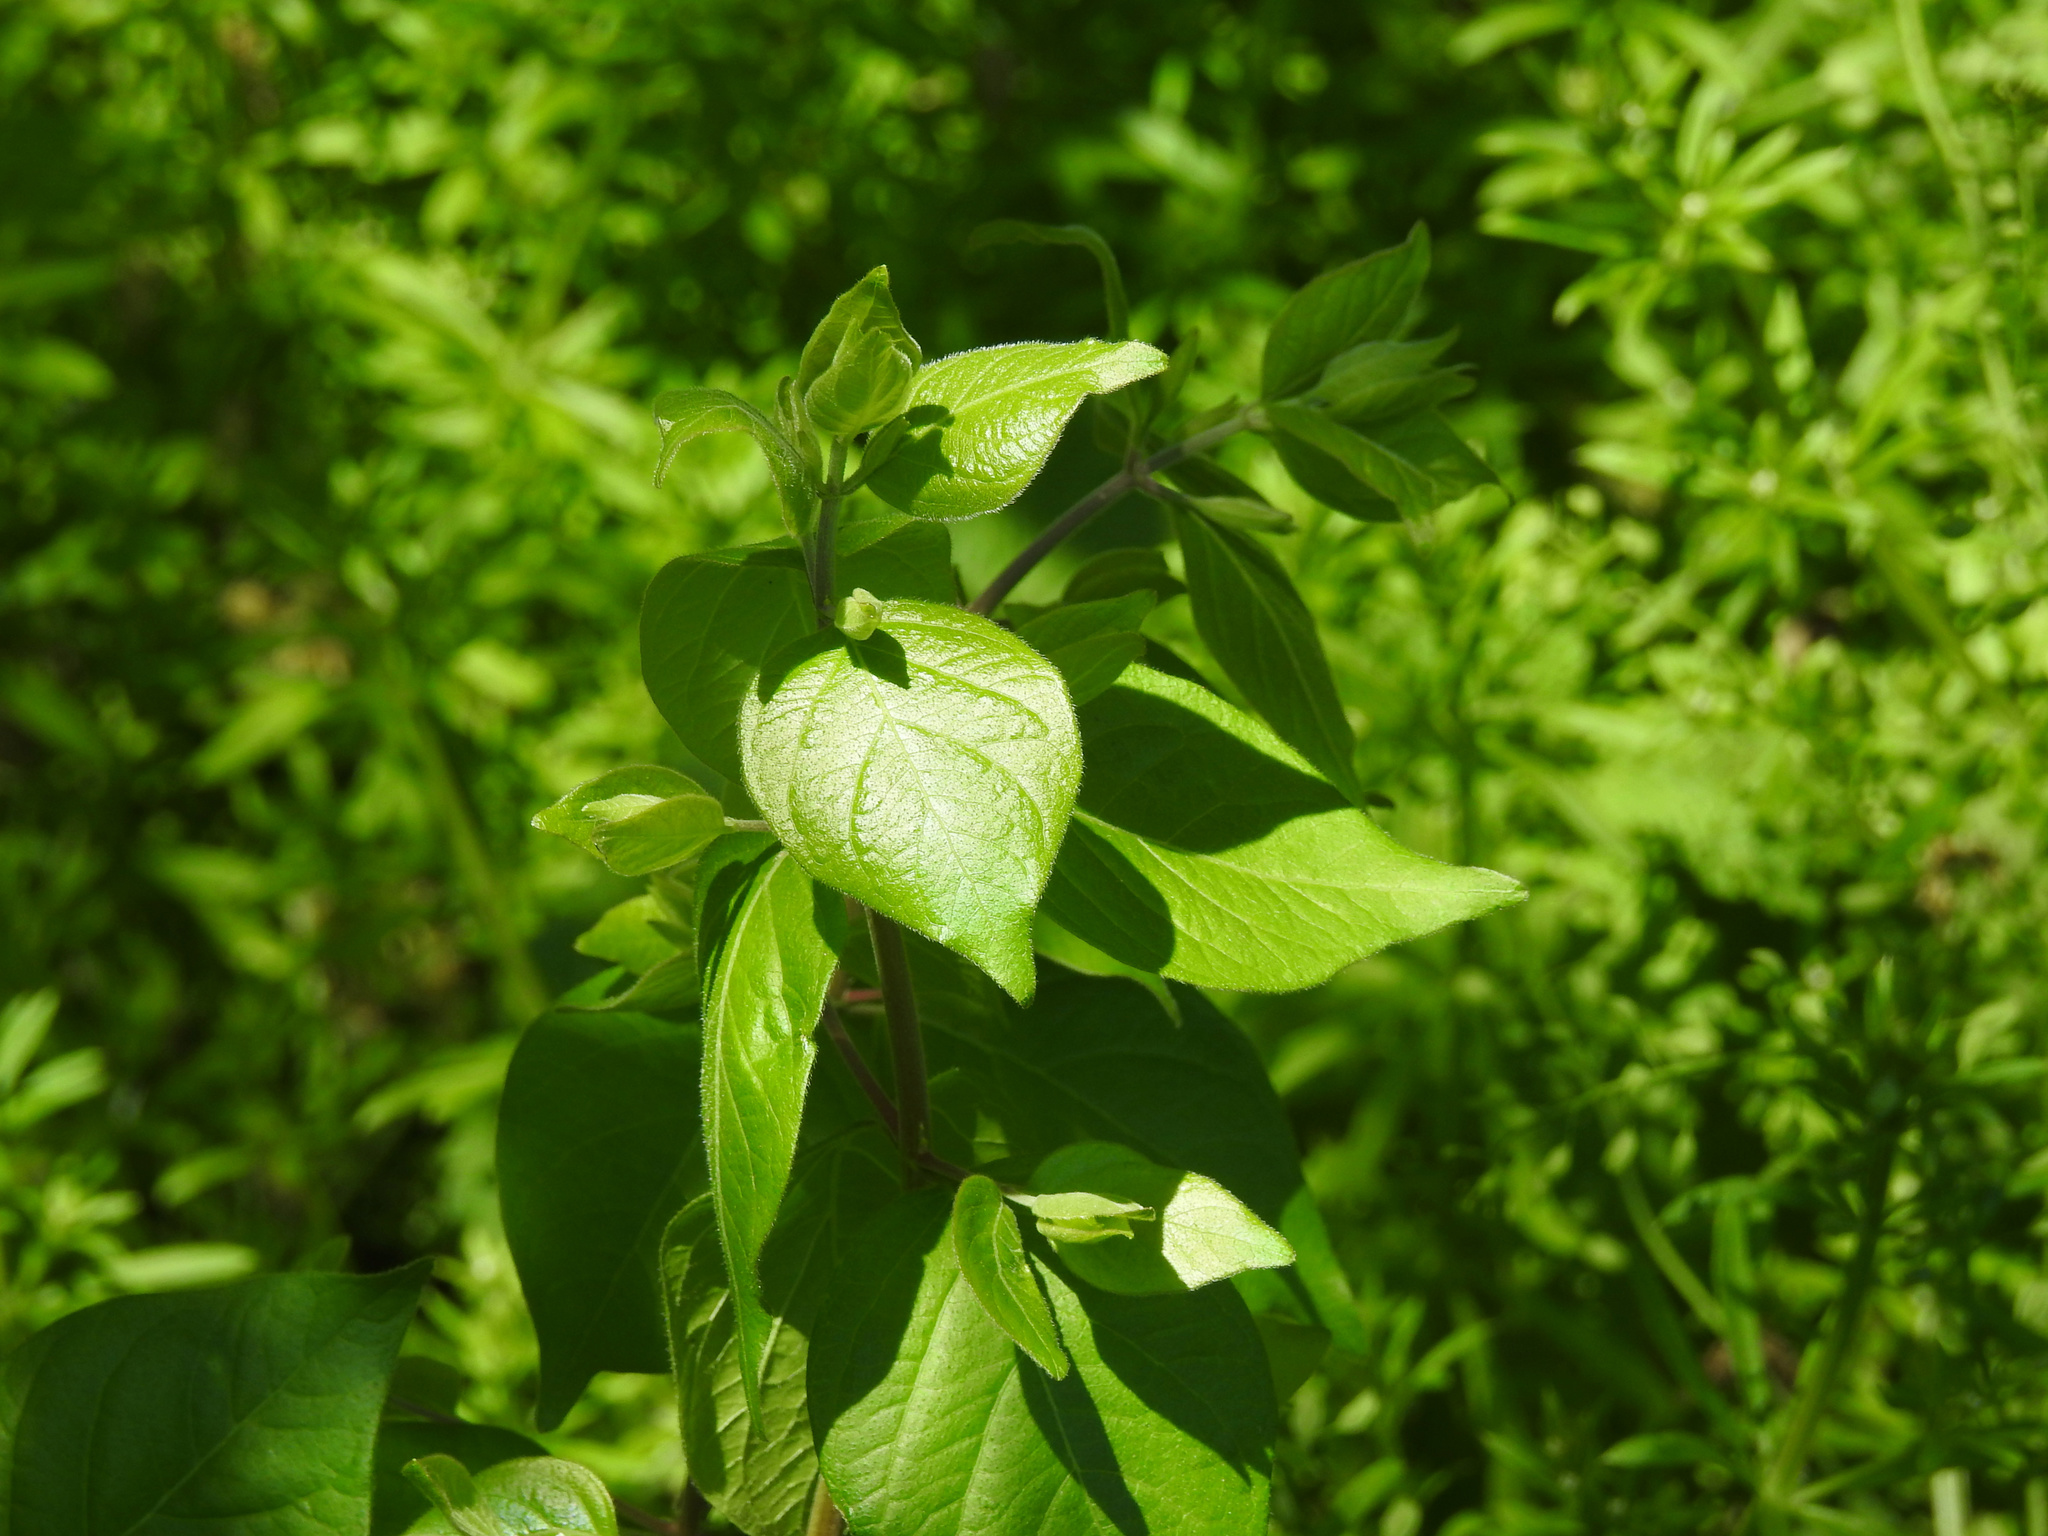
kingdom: Plantae
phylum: Tracheophyta
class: Magnoliopsida
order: Dipsacales
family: Caprifoliaceae
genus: Lonicera
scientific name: Lonicera maackii
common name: Amur honeysuckle
